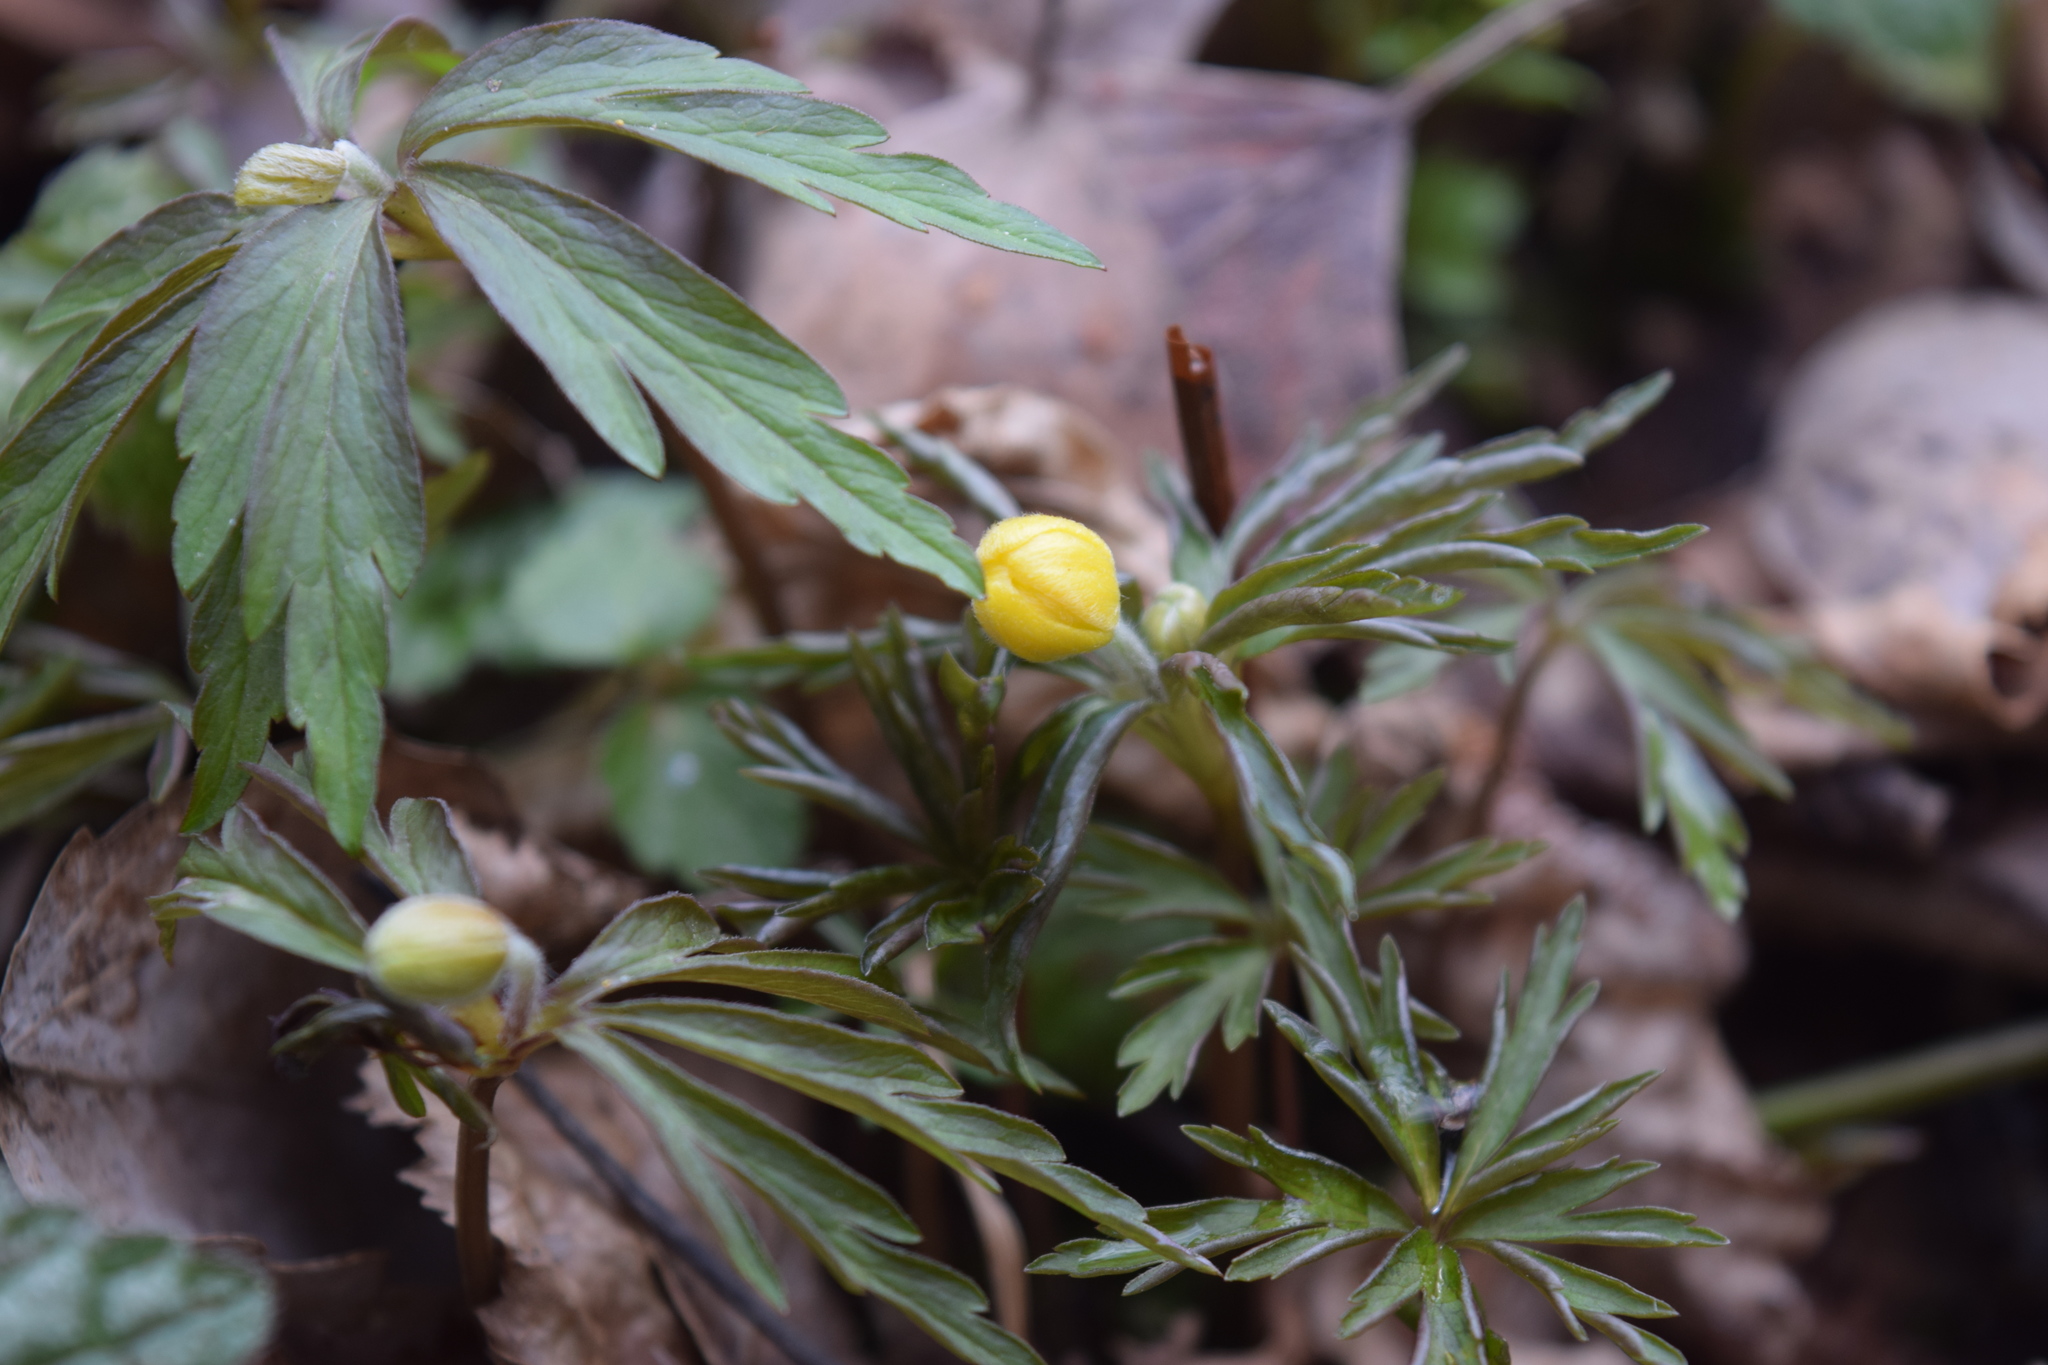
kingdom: Plantae
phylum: Tracheophyta
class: Magnoliopsida
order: Ranunculales
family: Ranunculaceae
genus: Anemone
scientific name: Anemone ranunculoides
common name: Yellow anemone
